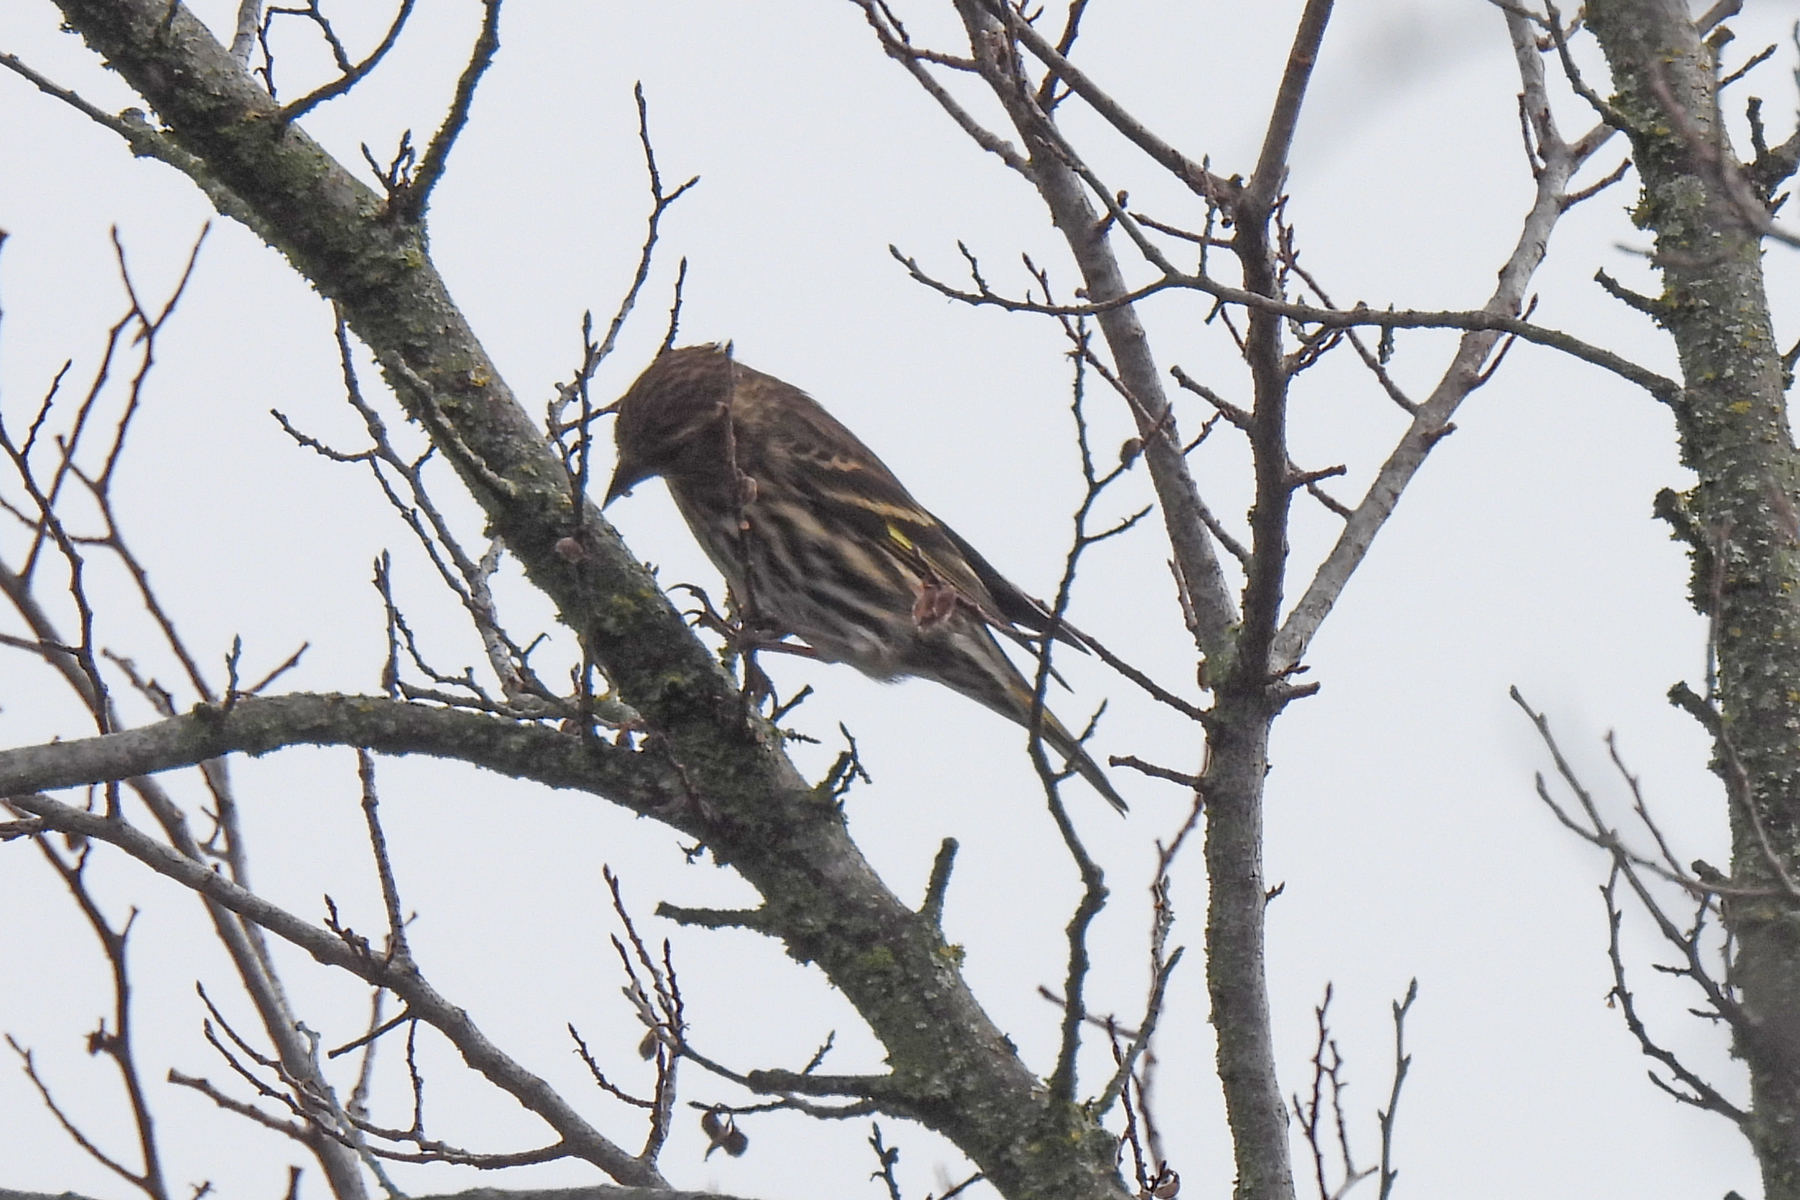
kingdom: Animalia
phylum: Chordata
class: Aves
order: Passeriformes
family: Fringillidae
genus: Spinus
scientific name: Spinus pinus
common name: Pine siskin
